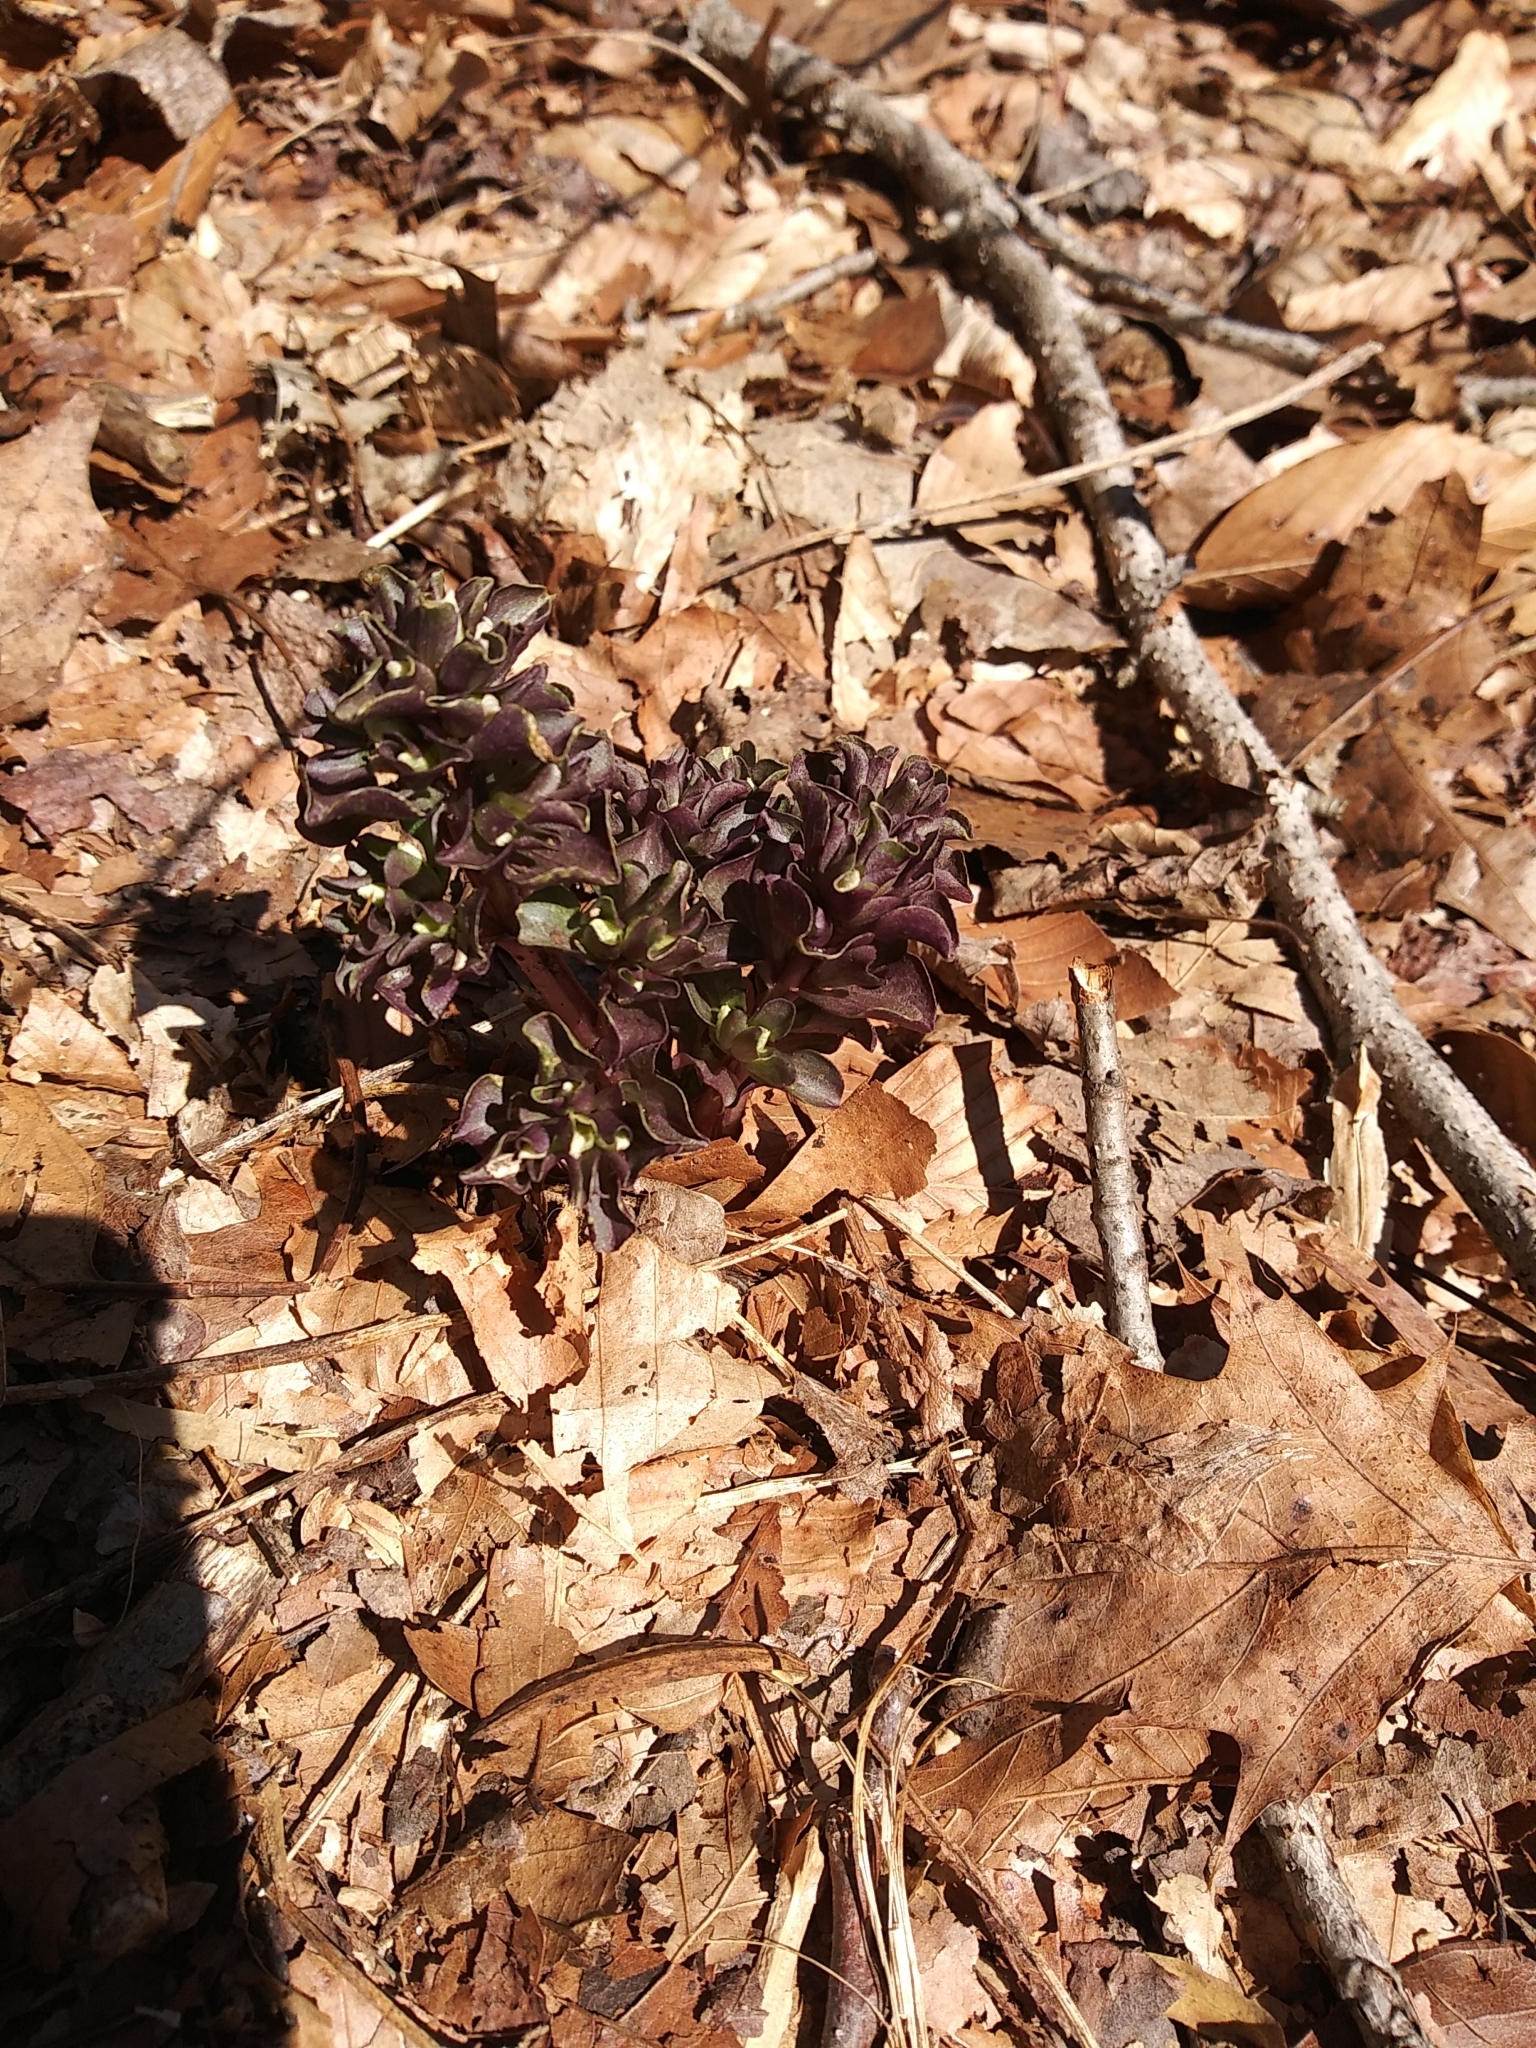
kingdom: Plantae
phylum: Tracheophyta
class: Magnoliopsida
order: Gentianales
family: Gentianaceae
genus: Obolaria
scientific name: Obolaria virginica
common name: Pennywort
